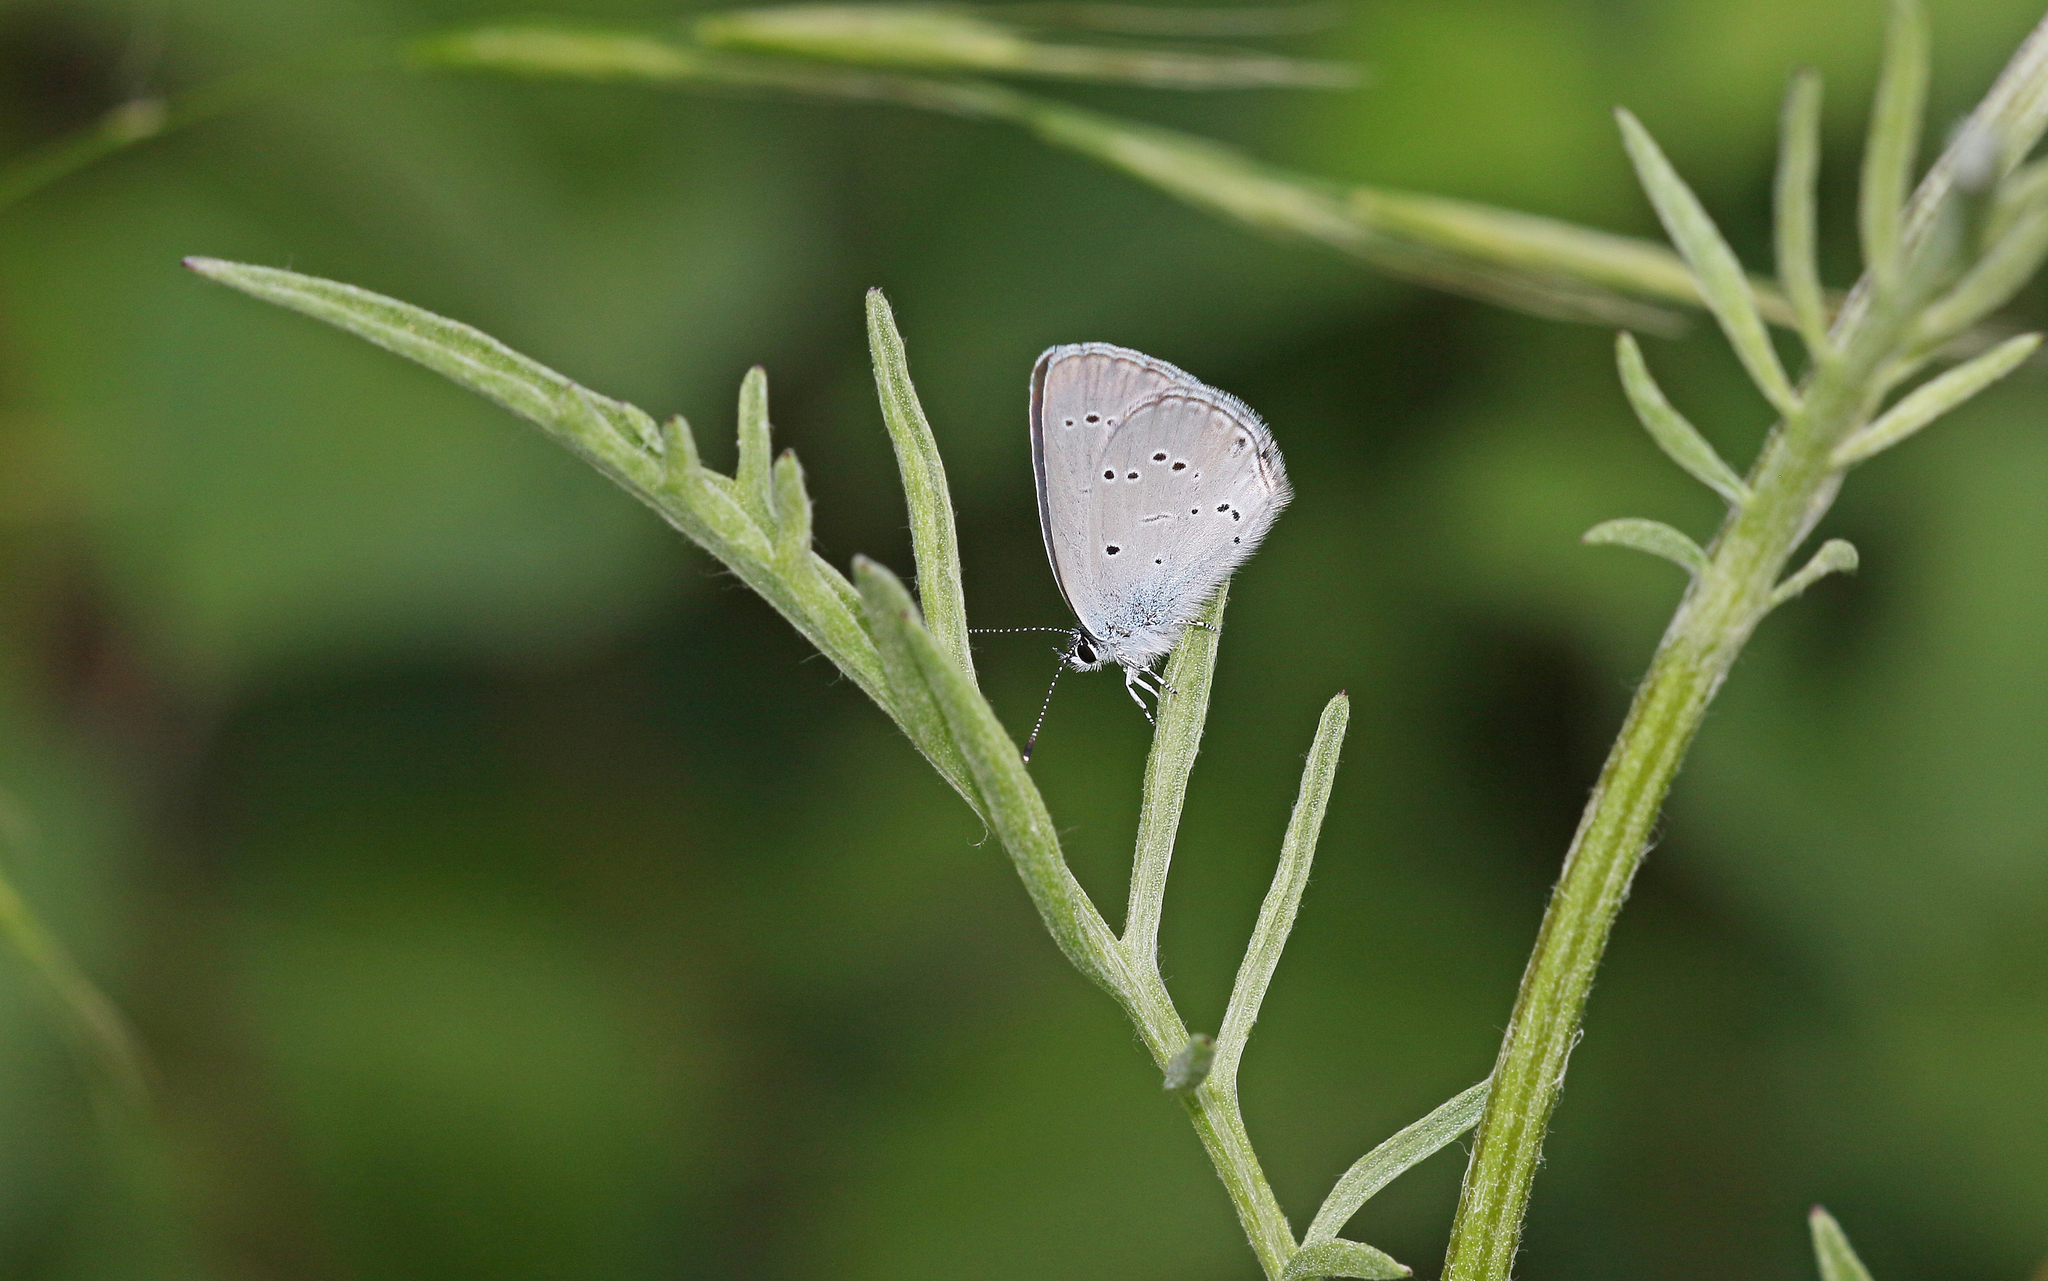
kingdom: Animalia
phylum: Arthropoda
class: Insecta
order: Lepidoptera
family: Lycaenidae
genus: Cupido
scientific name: Cupido minimus
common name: Small blue
